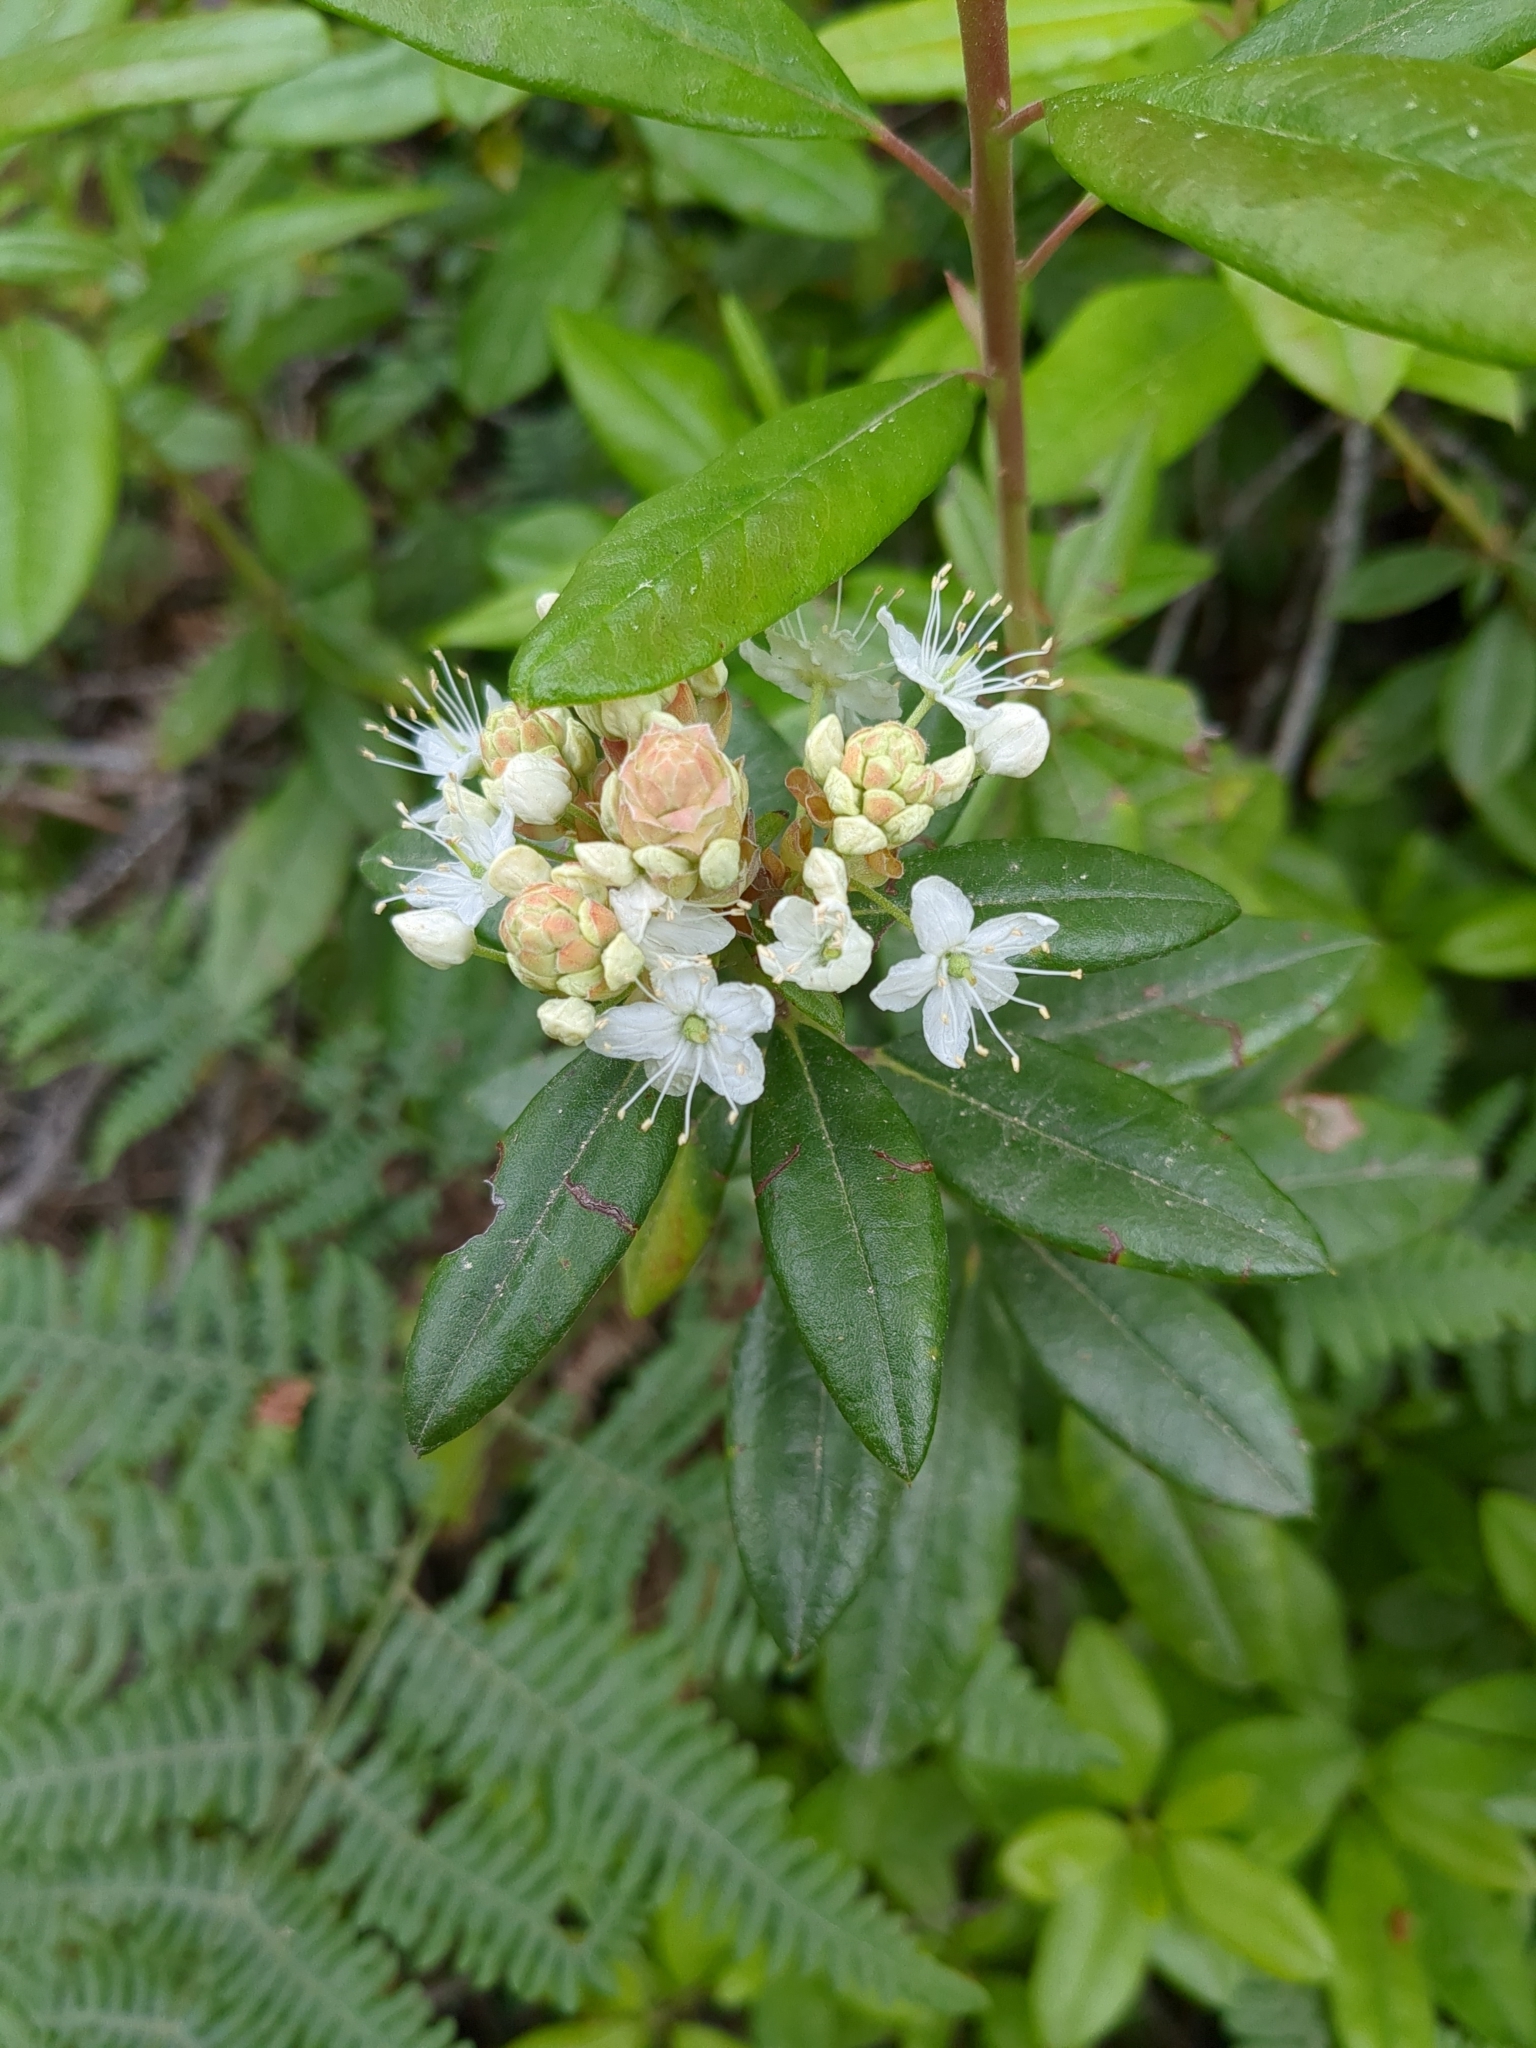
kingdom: Plantae
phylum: Tracheophyta
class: Magnoliopsida
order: Ericales
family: Ericaceae
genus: Rhododendron
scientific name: Rhododendron columbianum
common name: Western labrador tea
